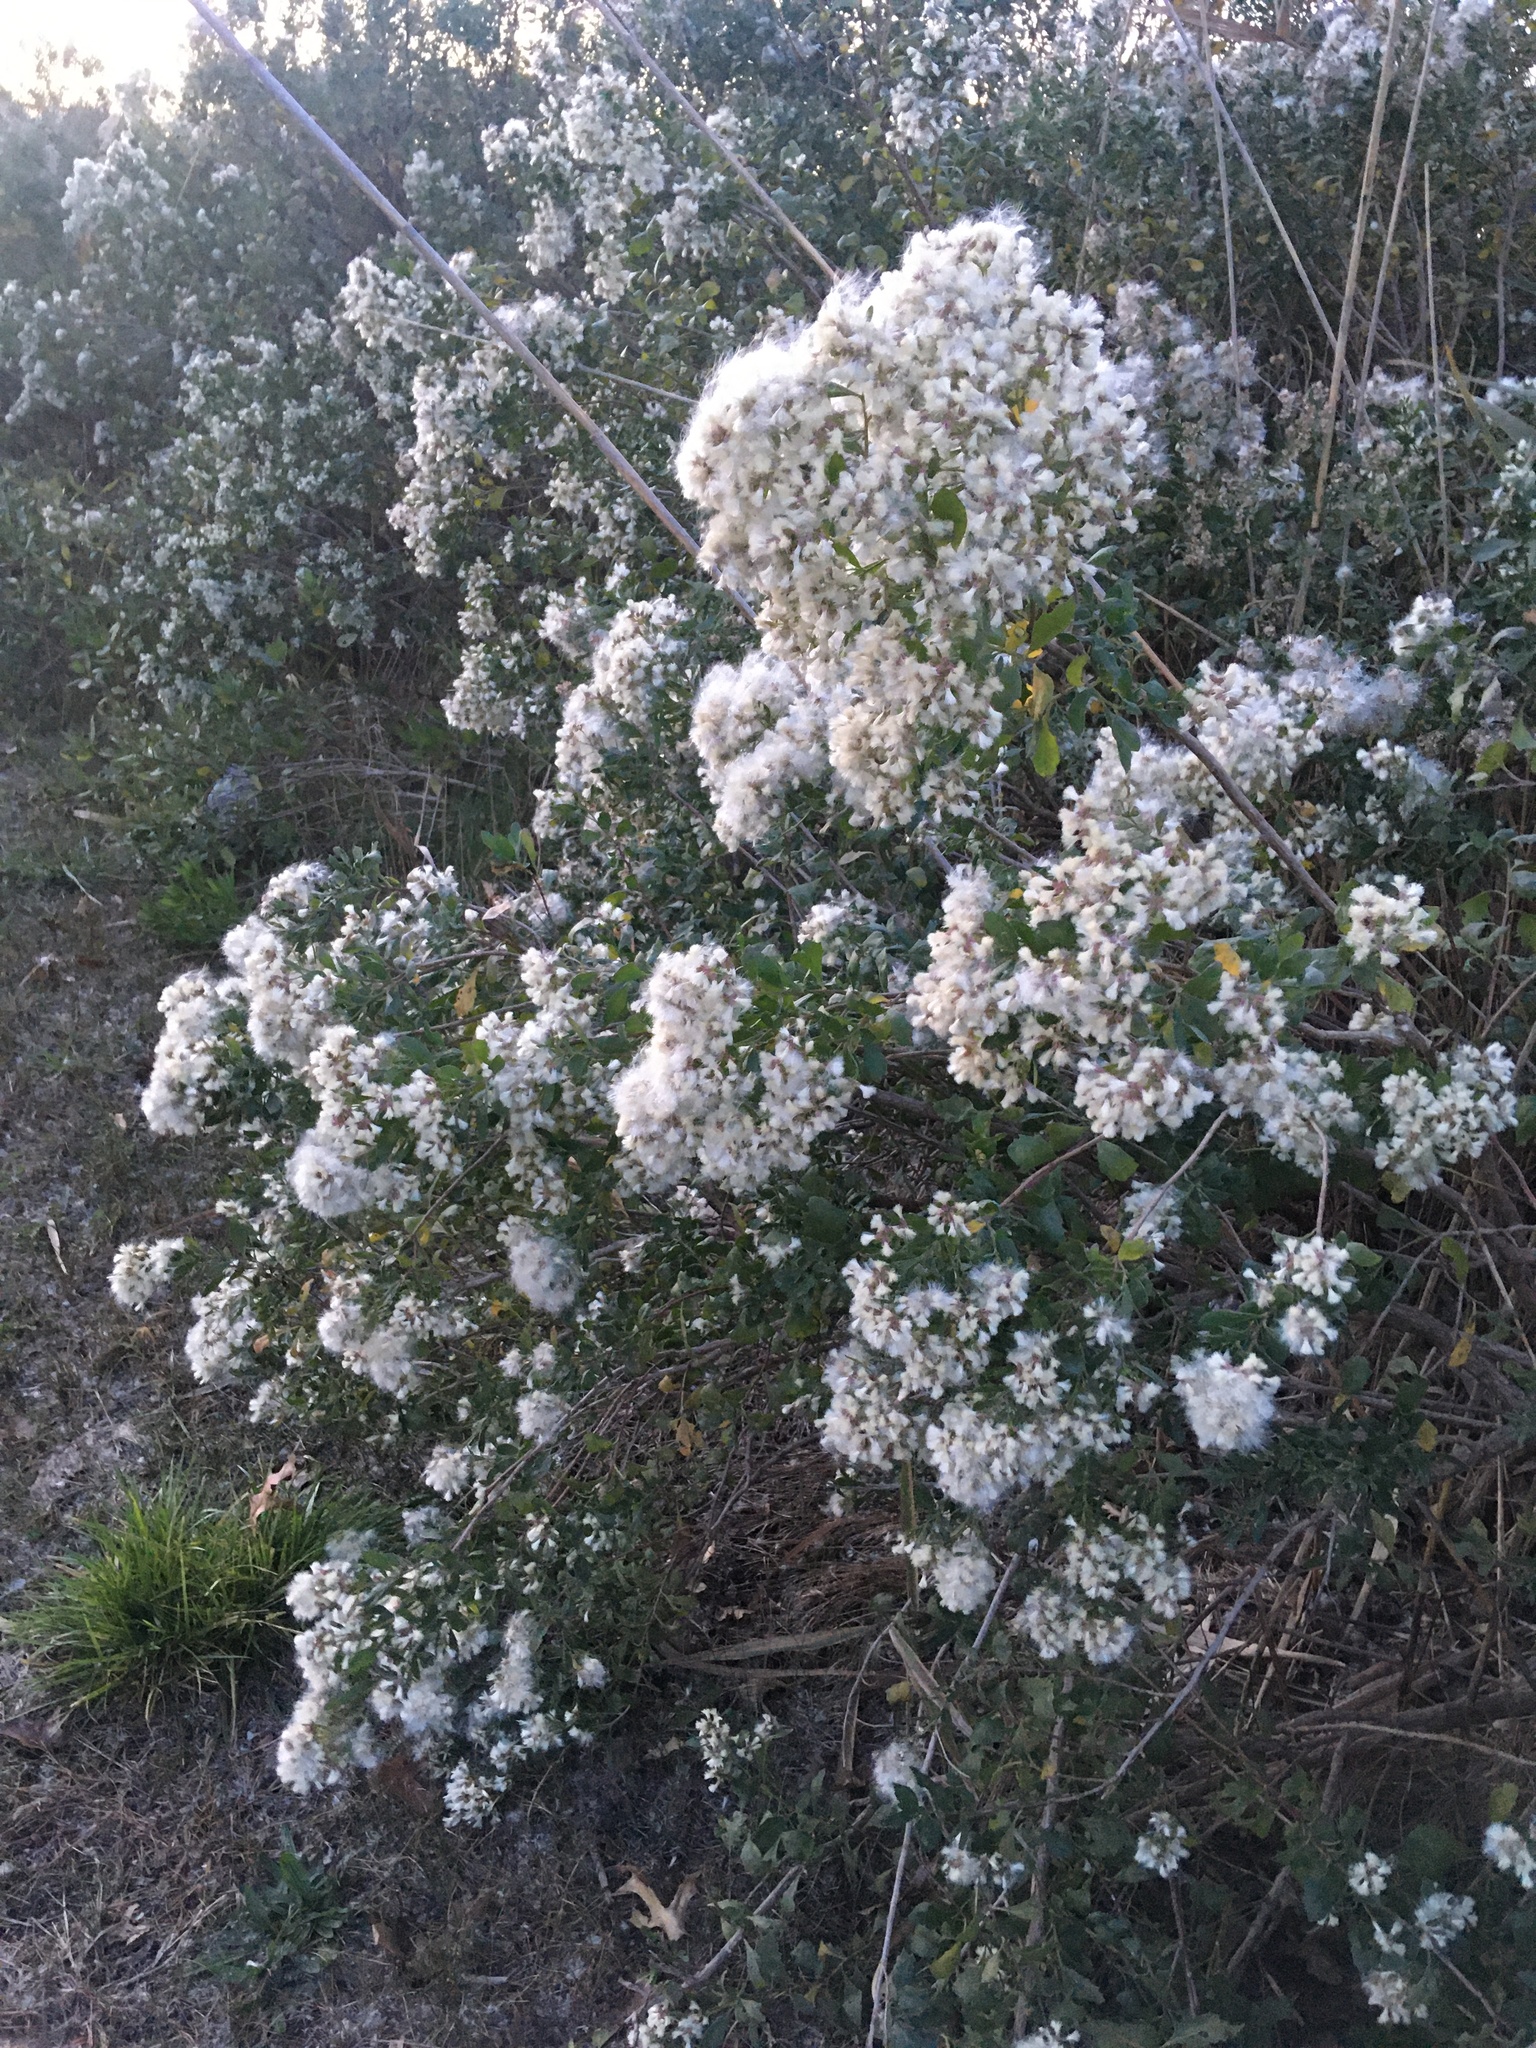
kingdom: Plantae
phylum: Tracheophyta
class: Magnoliopsida
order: Asterales
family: Asteraceae
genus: Baccharis
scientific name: Baccharis halimifolia
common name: Eastern baccharis
